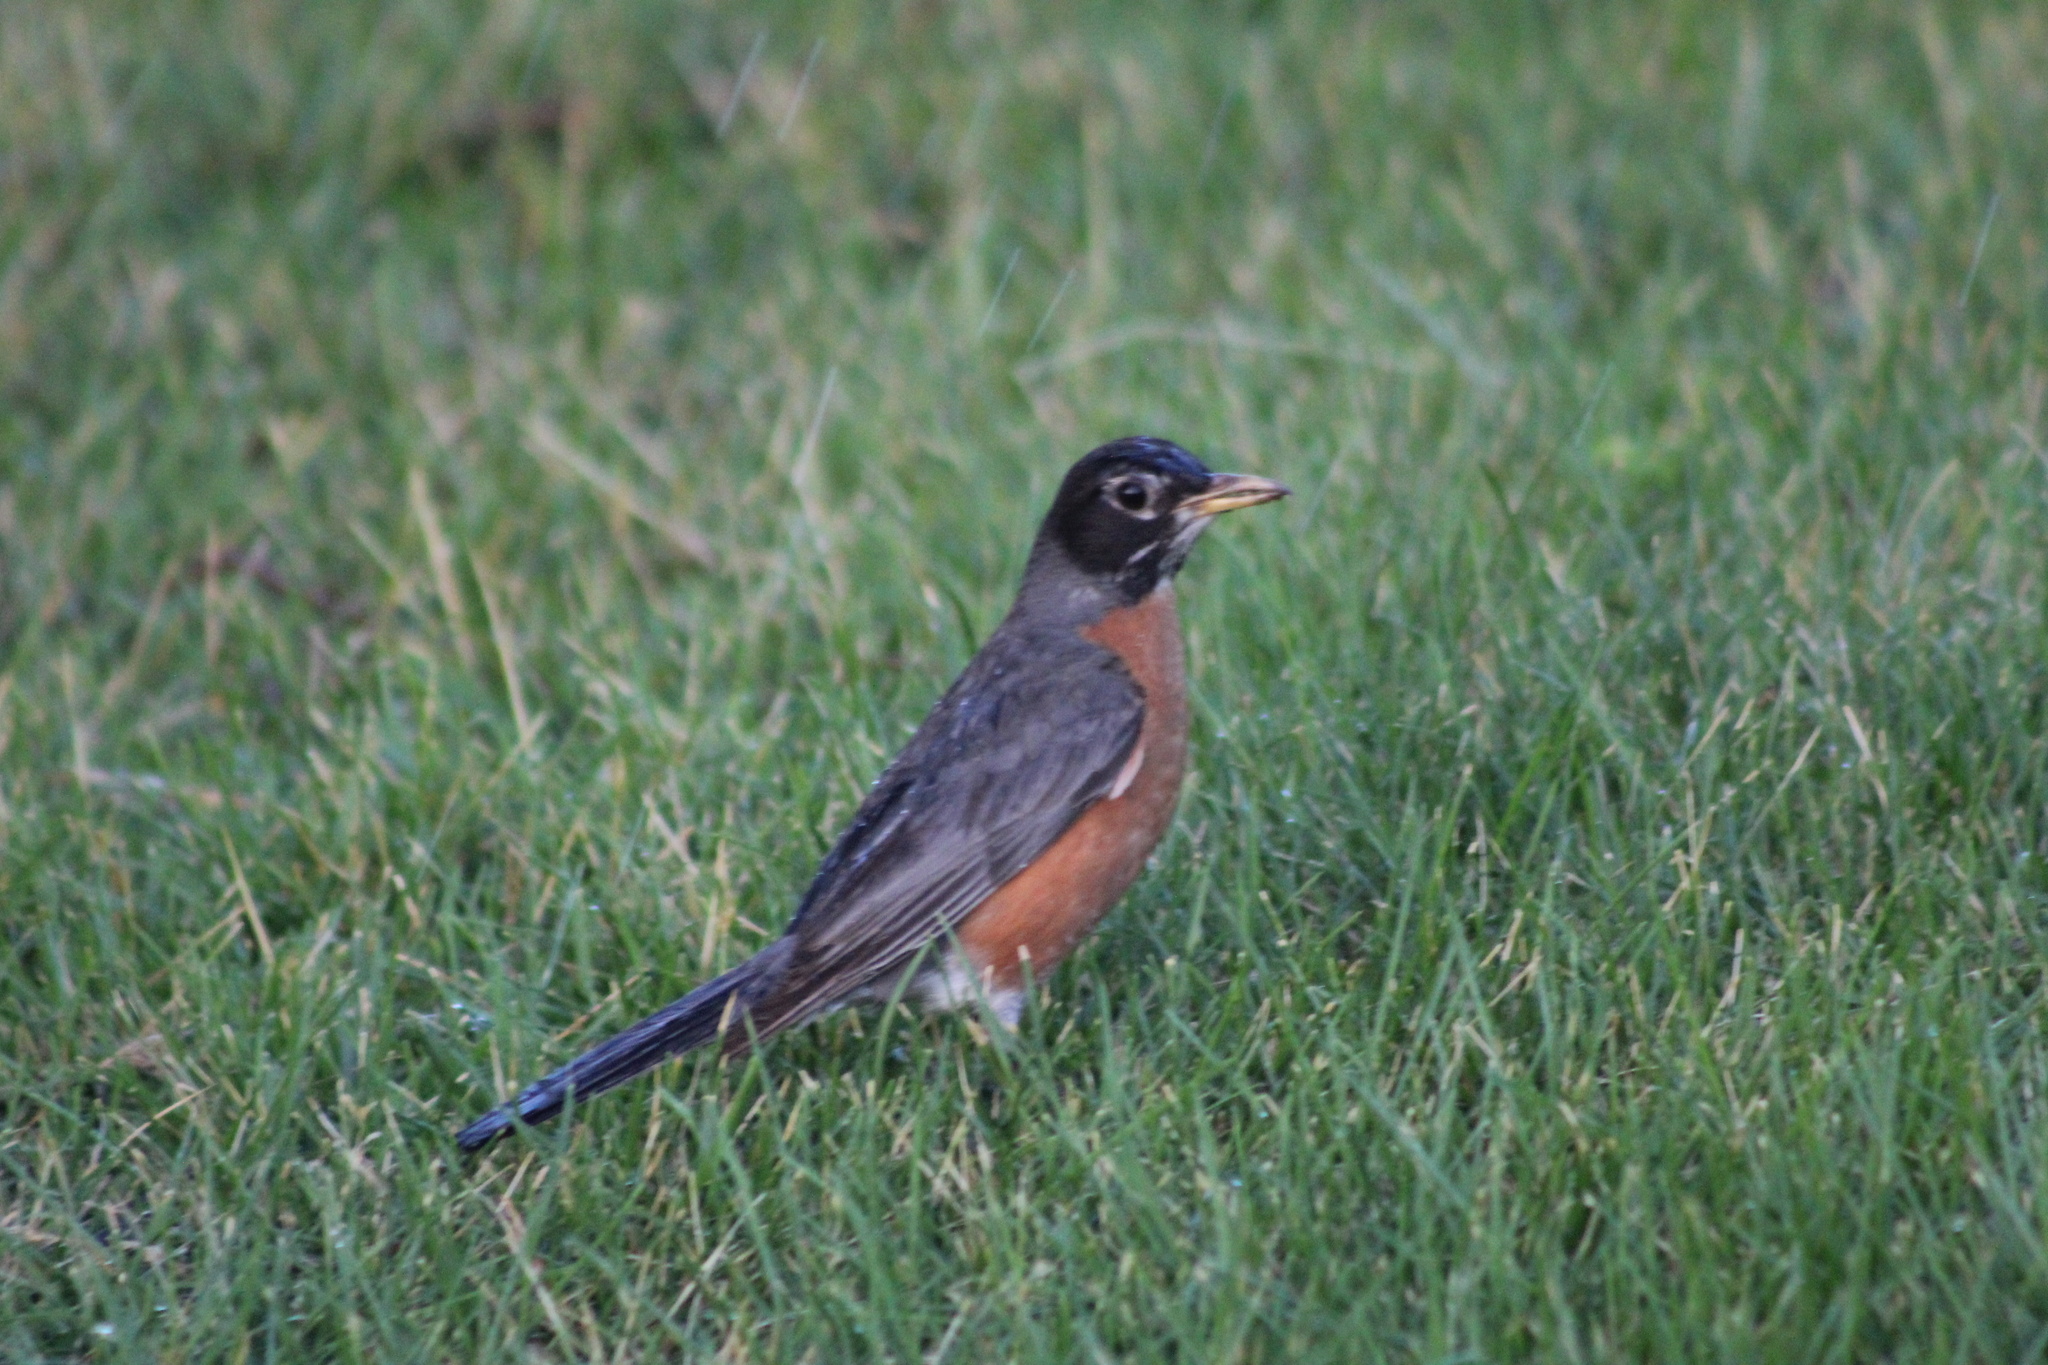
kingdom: Animalia
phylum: Chordata
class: Aves
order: Passeriformes
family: Turdidae
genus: Turdus
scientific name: Turdus migratorius
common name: American robin
